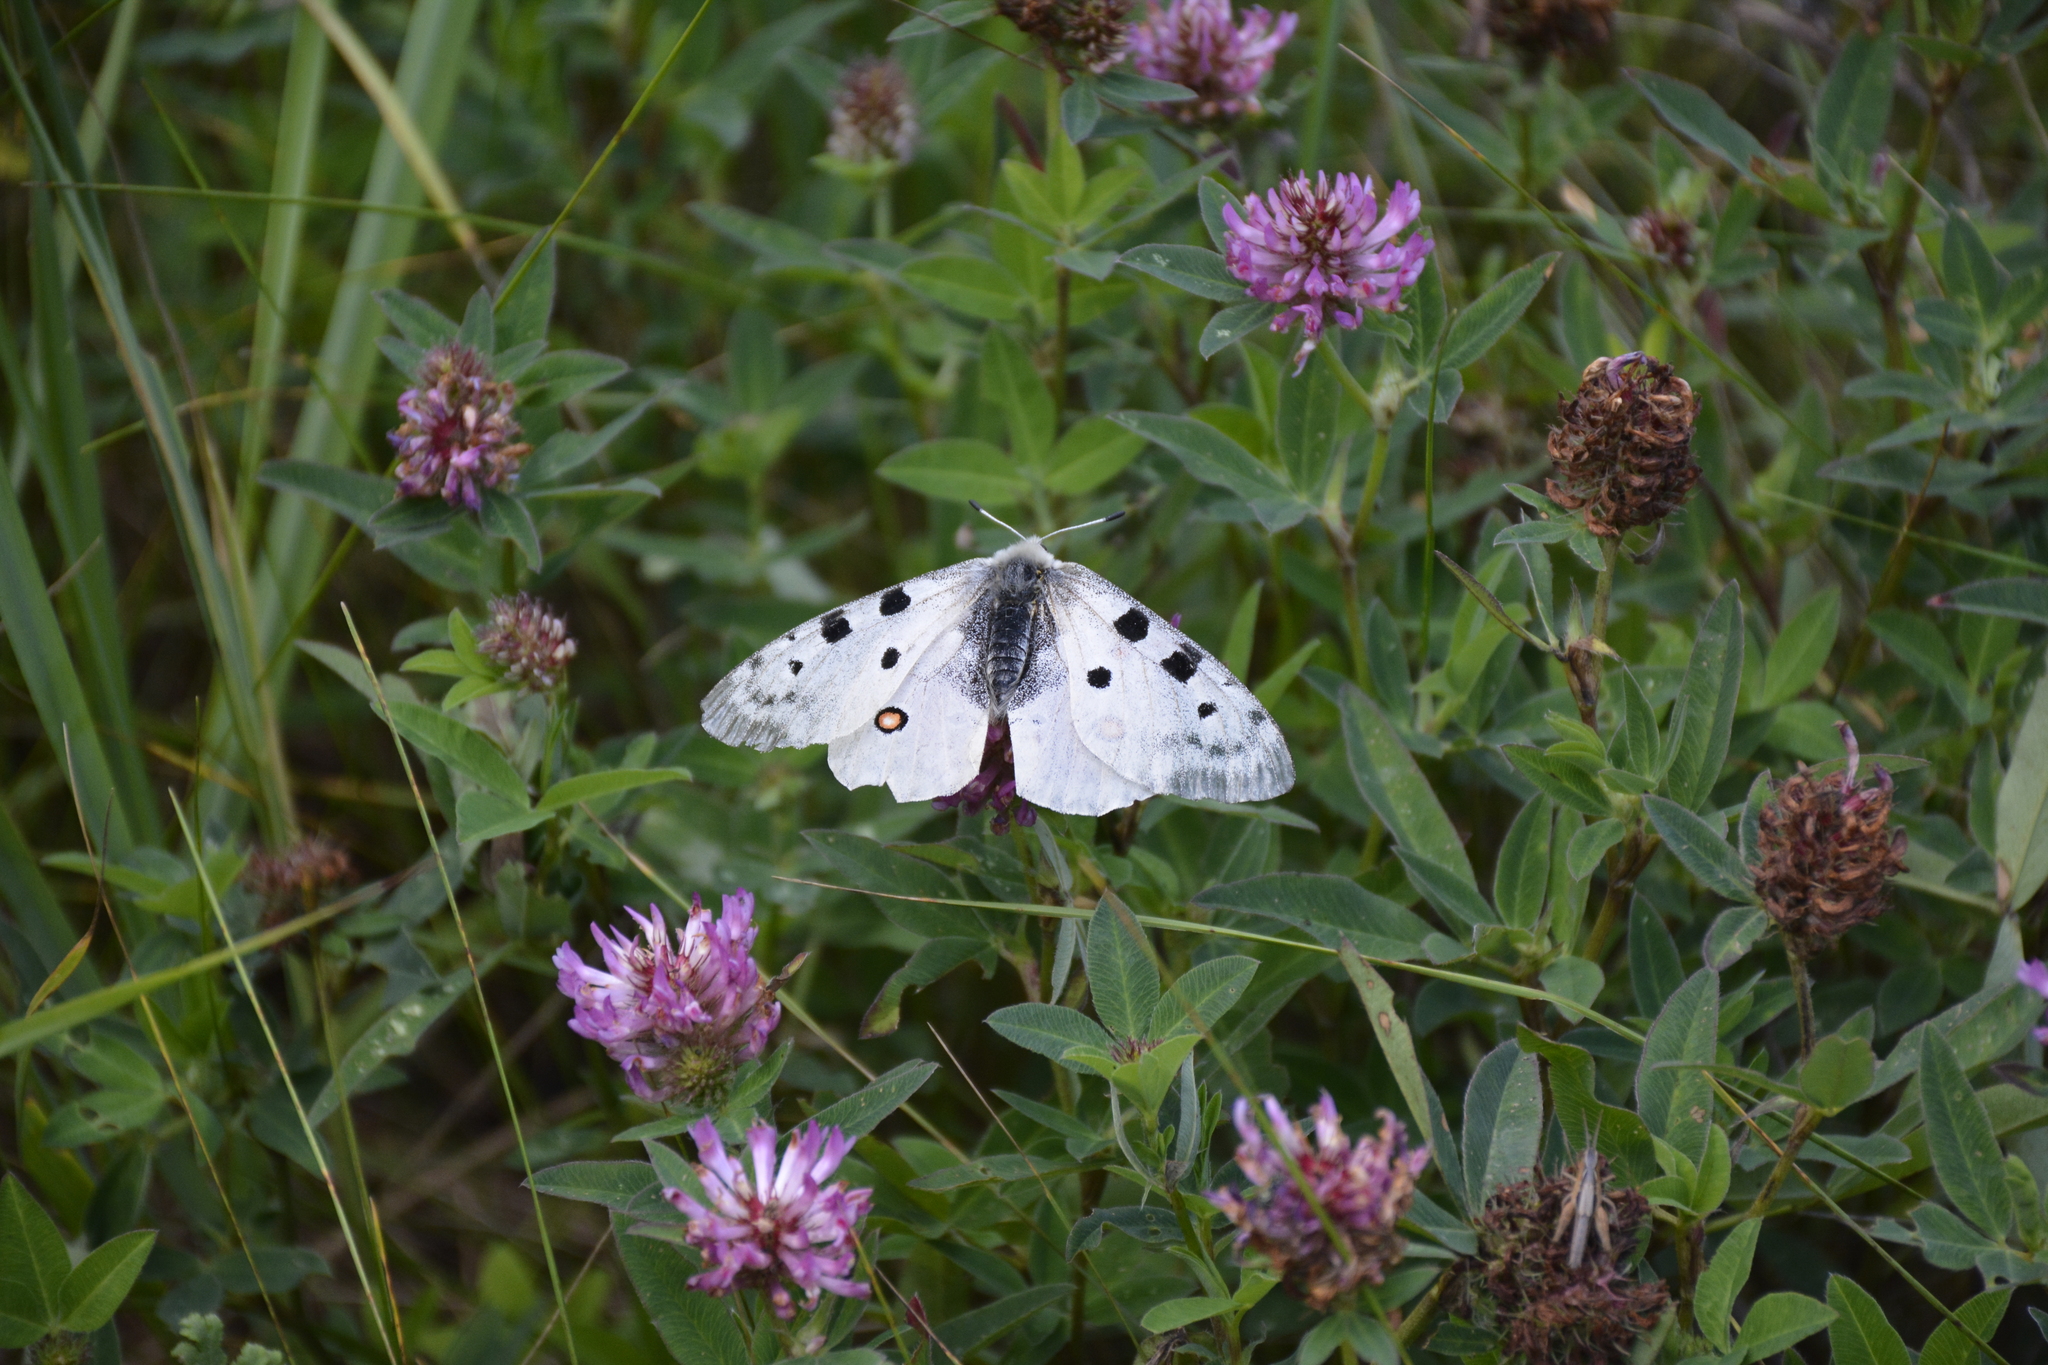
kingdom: Animalia
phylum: Arthropoda
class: Insecta
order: Lepidoptera
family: Papilionidae
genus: Parnassius
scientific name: Parnassius apollo
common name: Apollo
